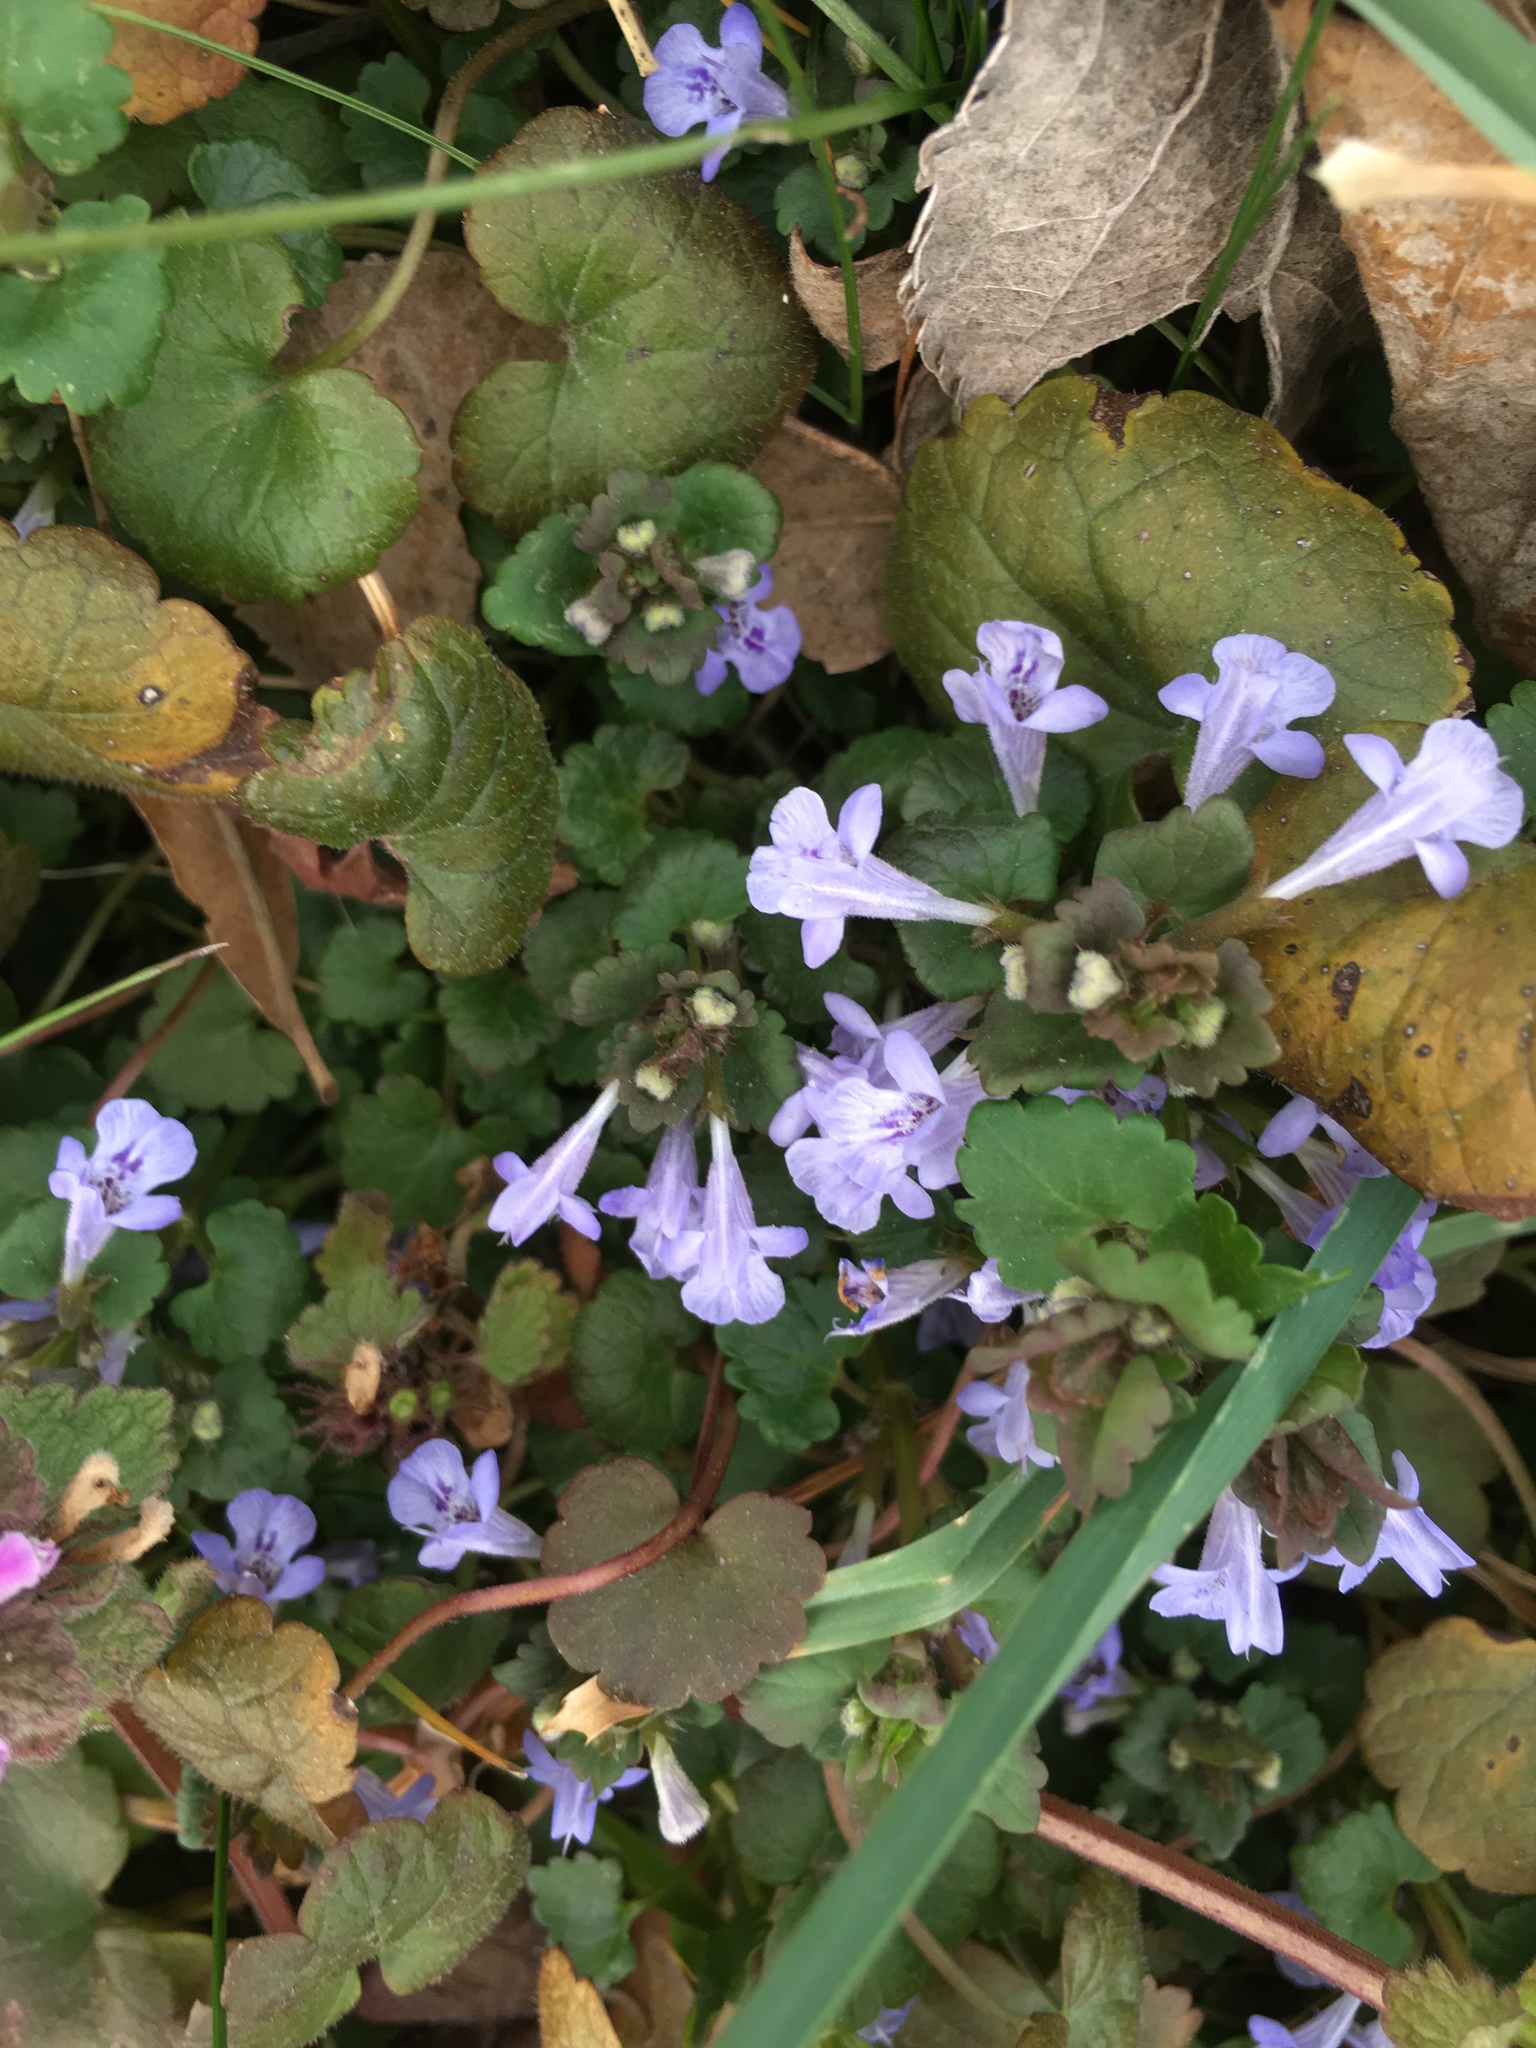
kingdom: Plantae
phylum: Tracheophyta
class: Magnoliopsida
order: Lamiales
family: Lamiaceae
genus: Glechoma
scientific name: Glechoma hederacea
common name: Ground ivy
